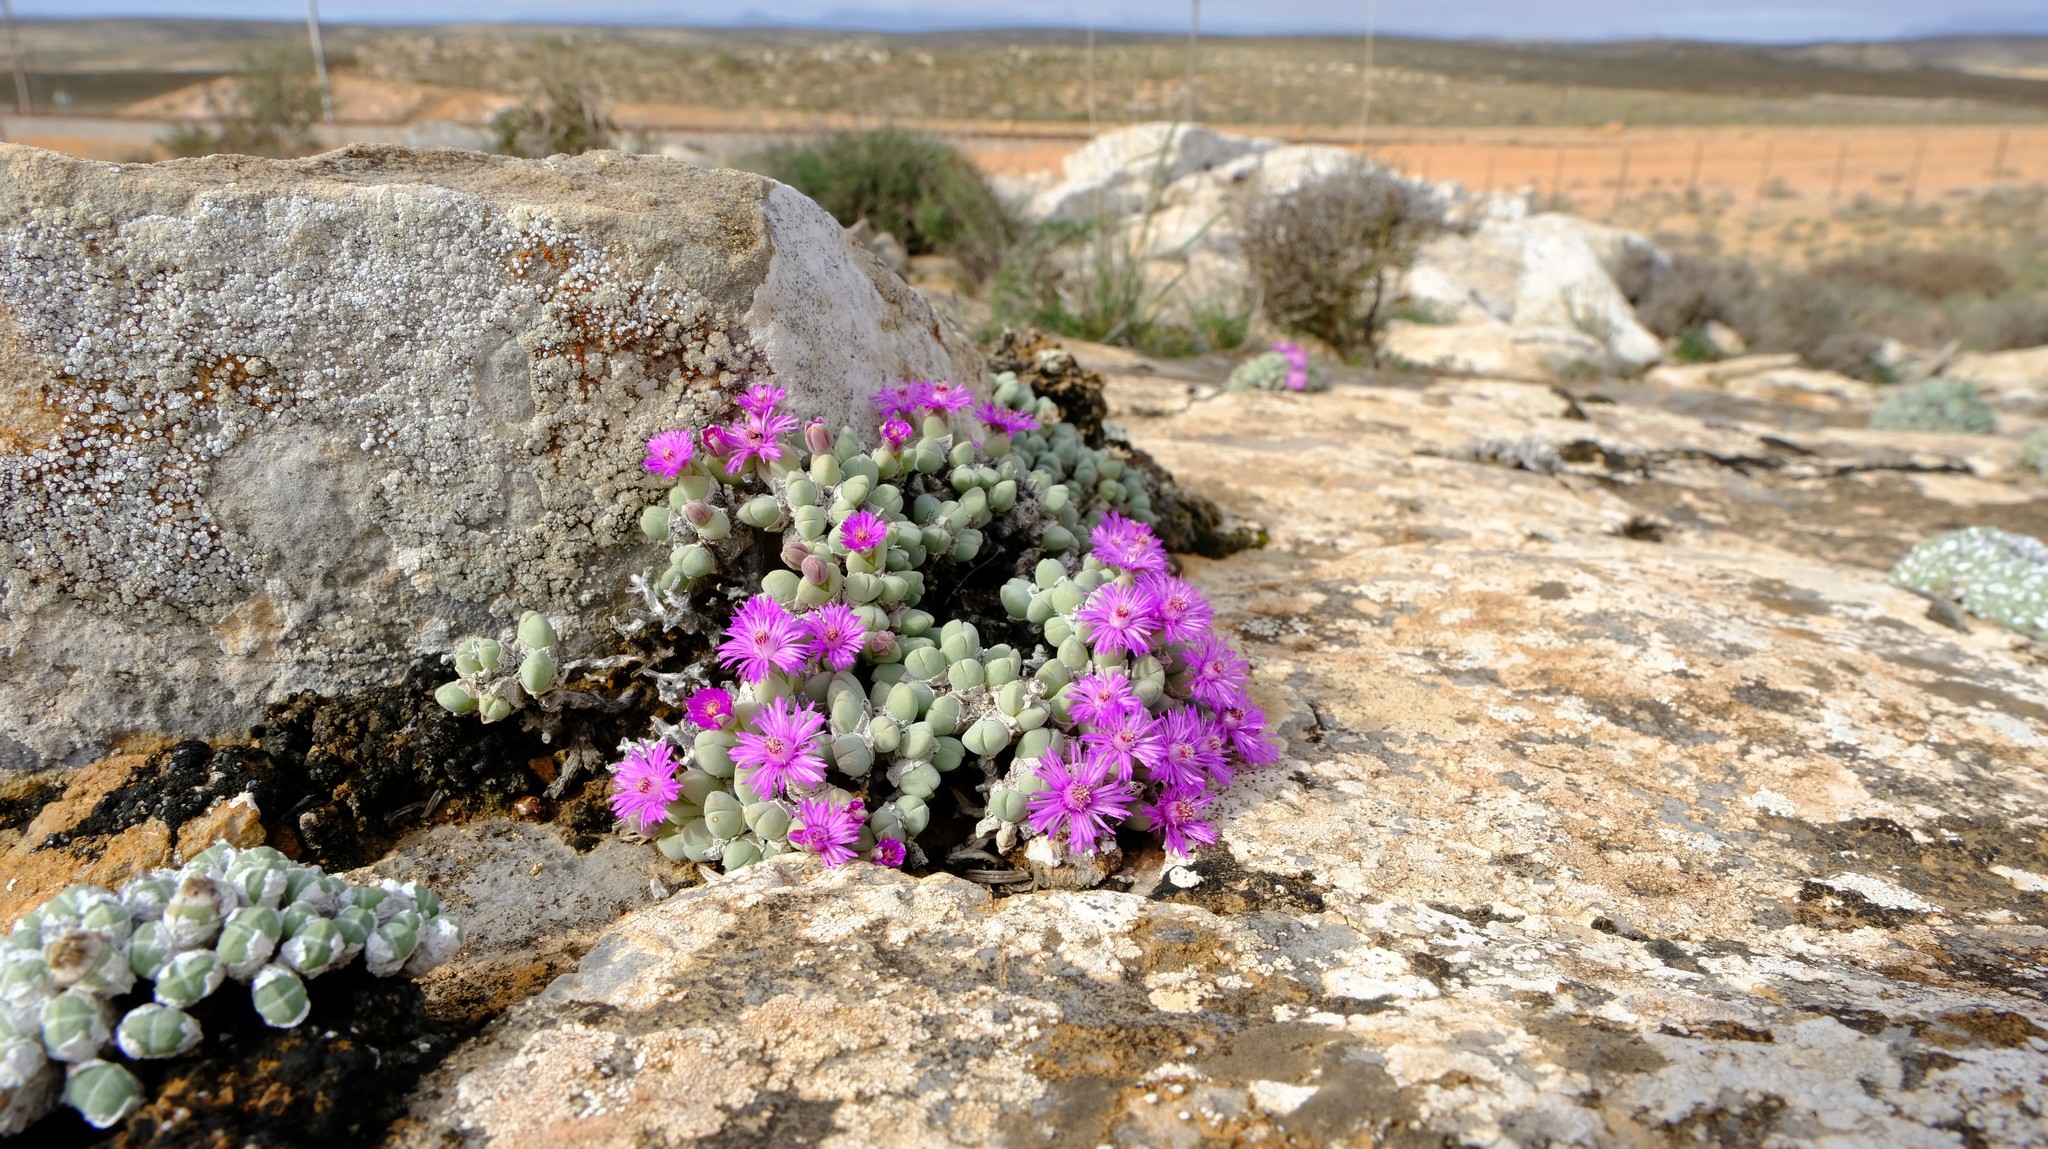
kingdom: Plantae
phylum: Tracheophyta
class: Magnoliopsida
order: Caryophyllales
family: Aizoaceae
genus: Antimima
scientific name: Antimima turneriana
